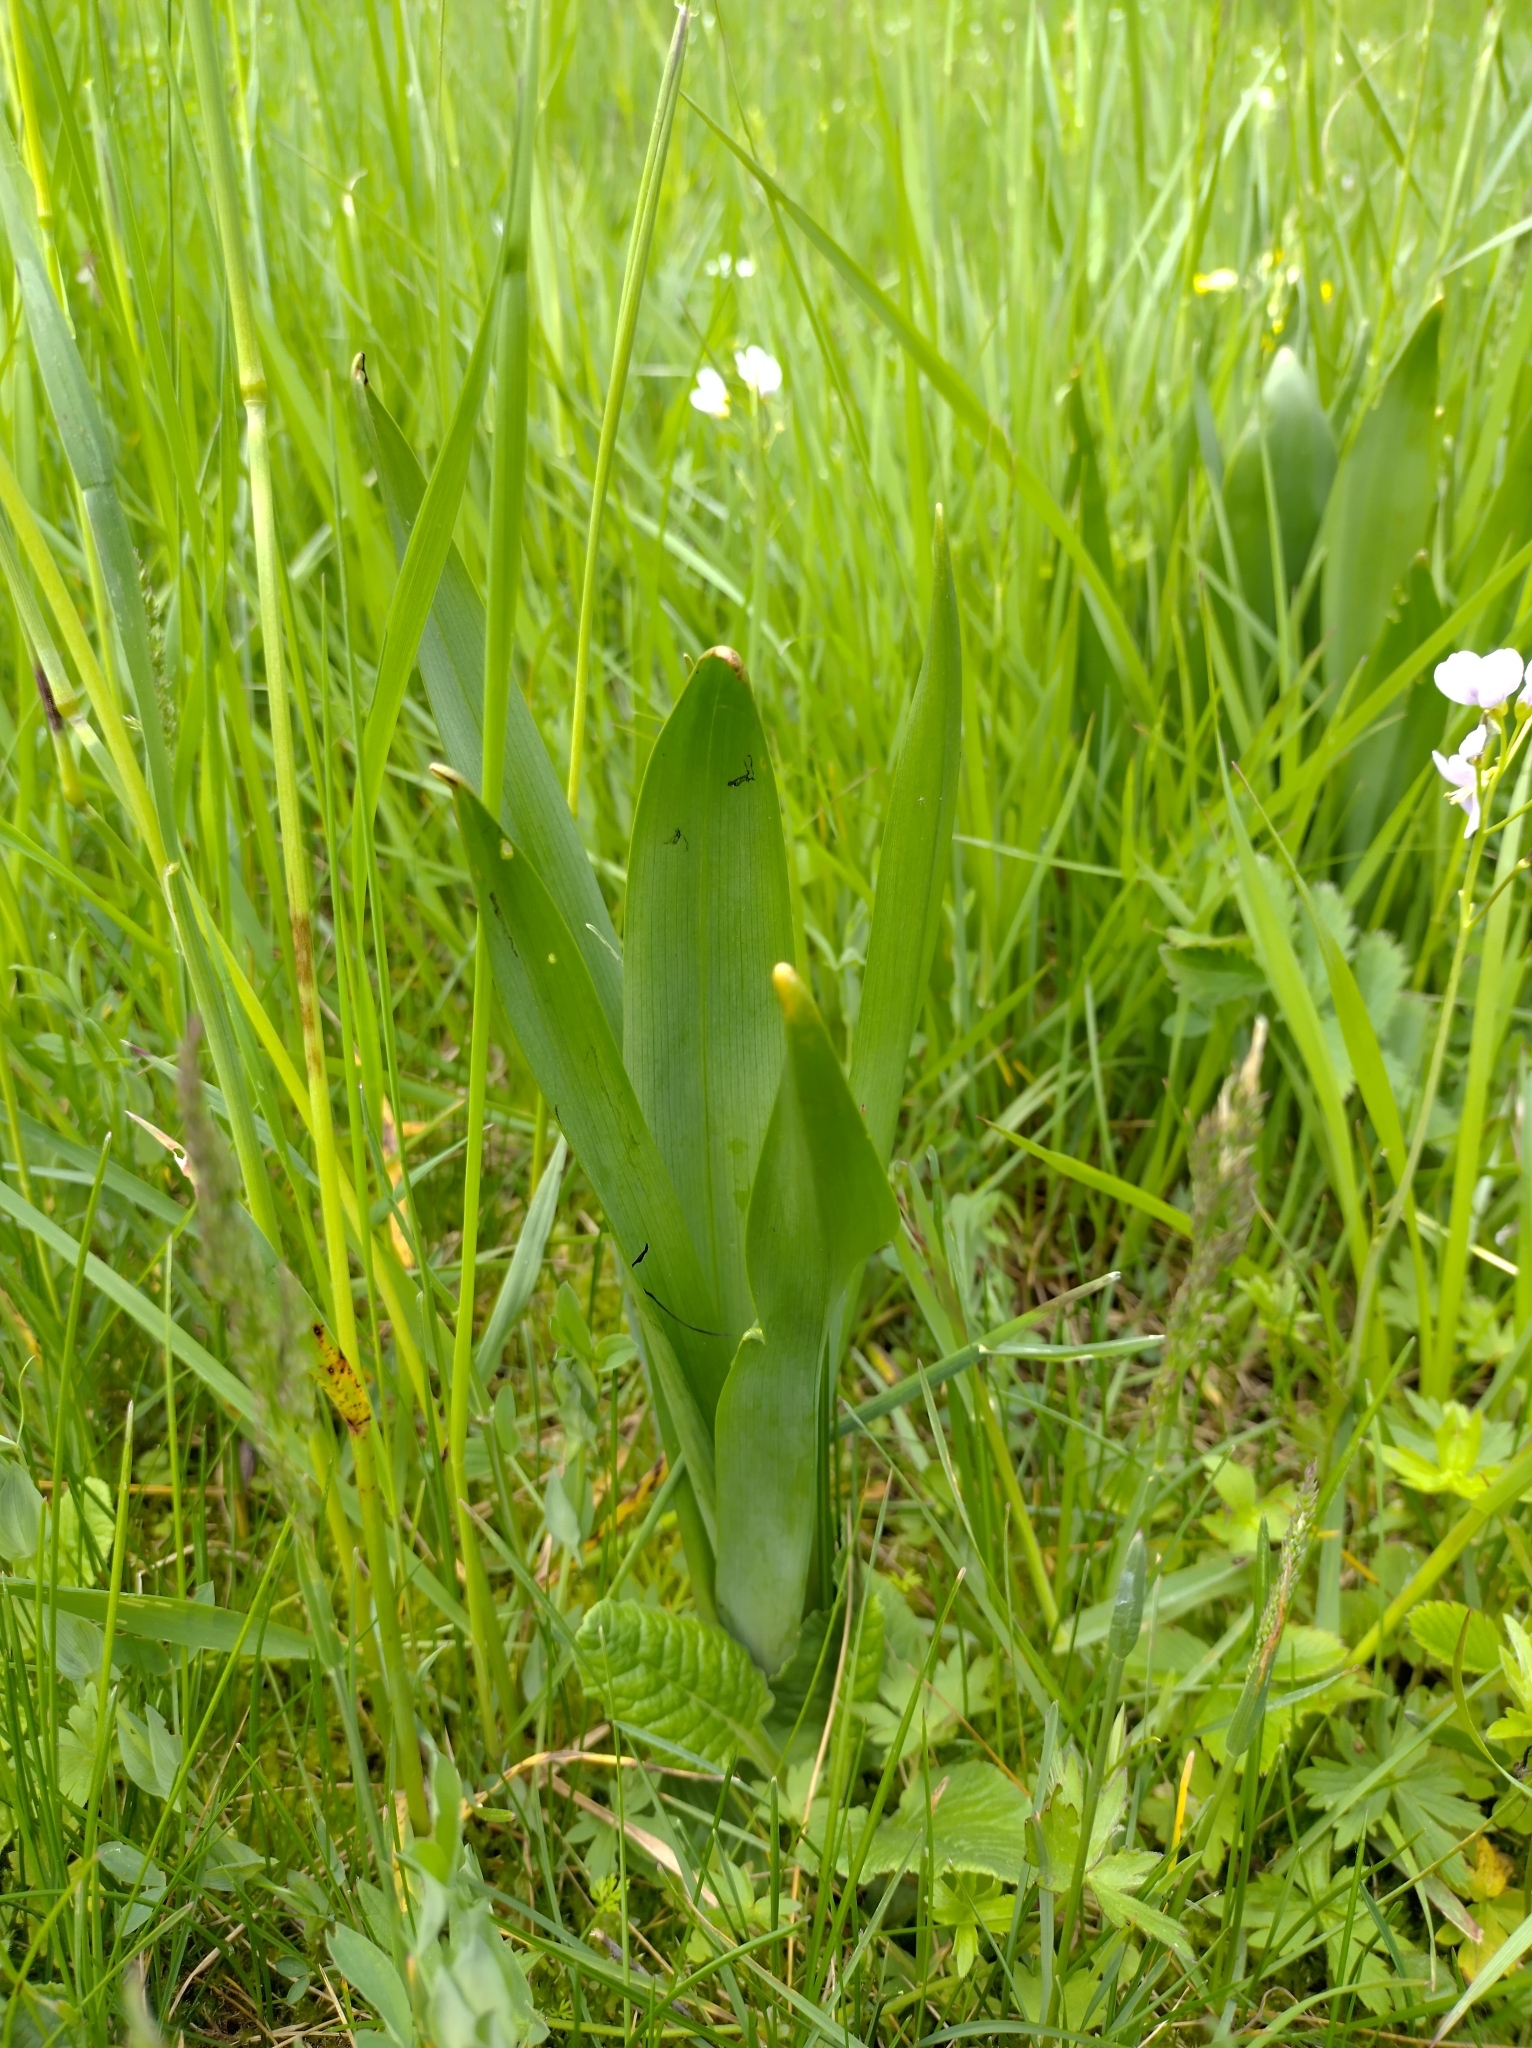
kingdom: Plantae
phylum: Tracheophyta
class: Liliopsida
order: Liliales
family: Colchicaceae
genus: Colchicum
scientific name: Colchicum autumnale
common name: Autumn crocus
